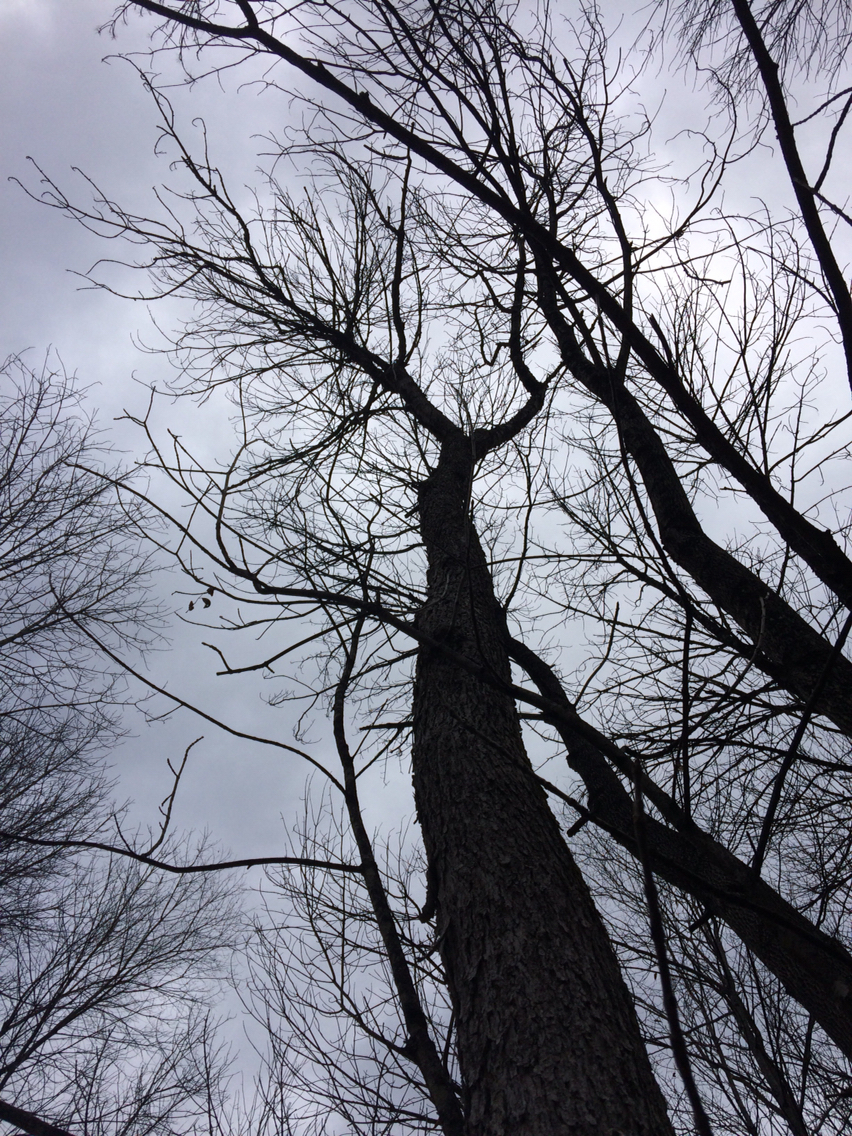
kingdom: Plantae
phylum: Tracheophyta
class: Magnoliopsida
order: Lamiales
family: Oleaceae
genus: Fraxinus
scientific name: Fraxinus nigra
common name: Black ash
